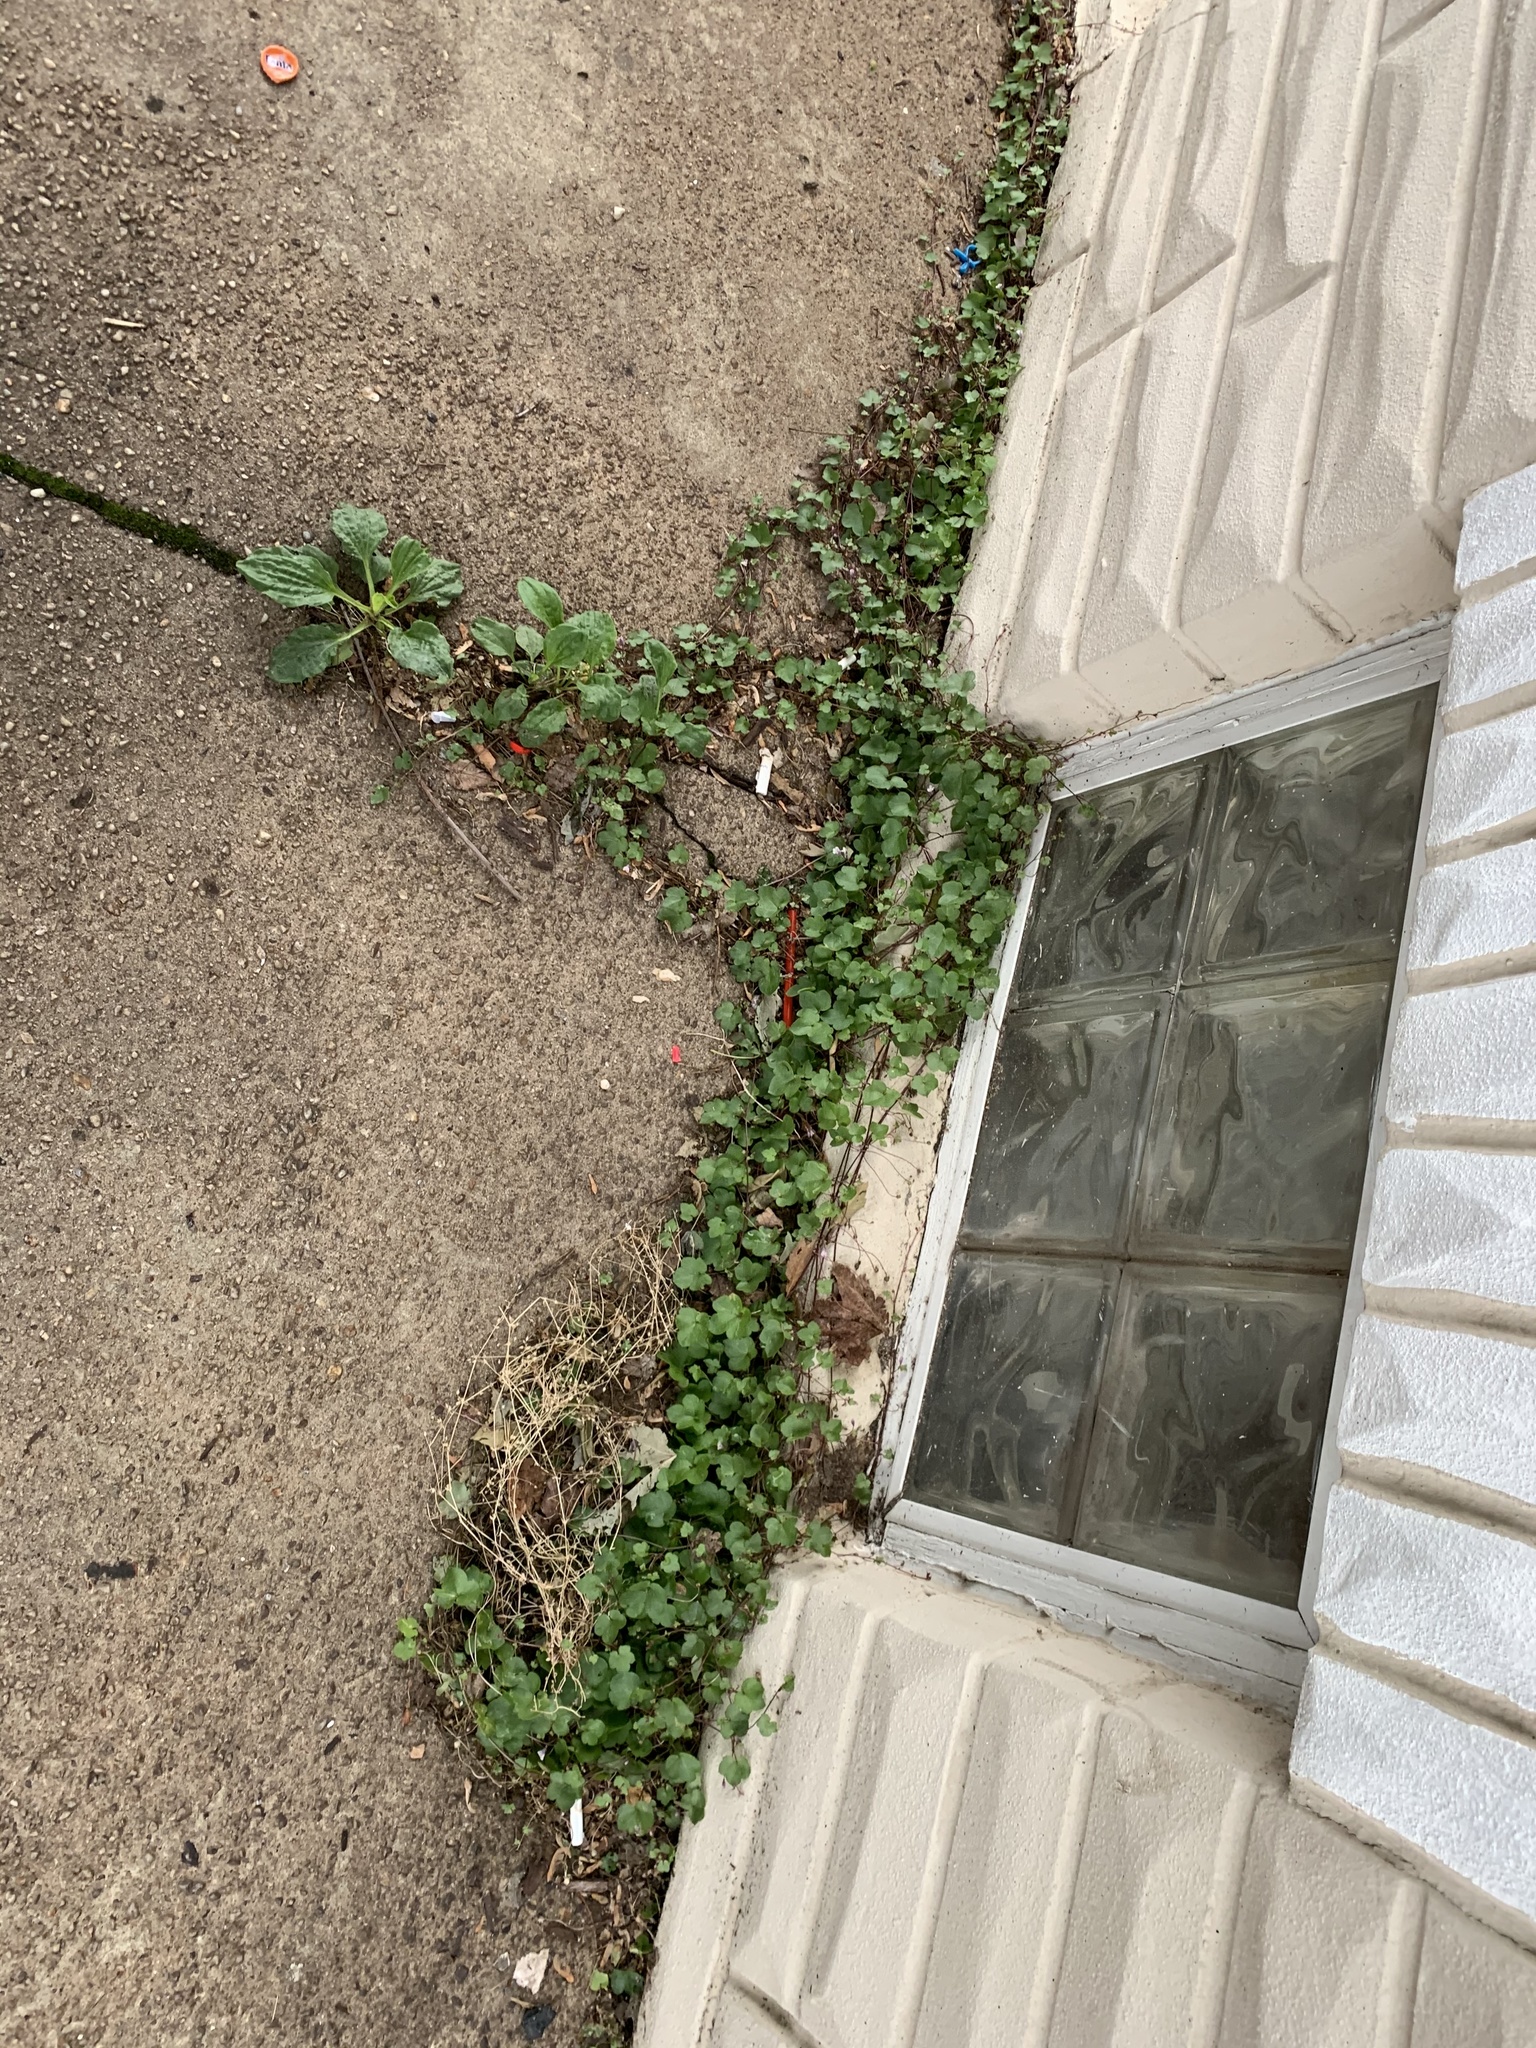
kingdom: Plantae
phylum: Tracheophyta
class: Magnoliopsida
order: Lamiales
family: Plantaginaceae
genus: Cymbalaria
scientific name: Cymbalaria muralis
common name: Ivy-leaved toadflax
